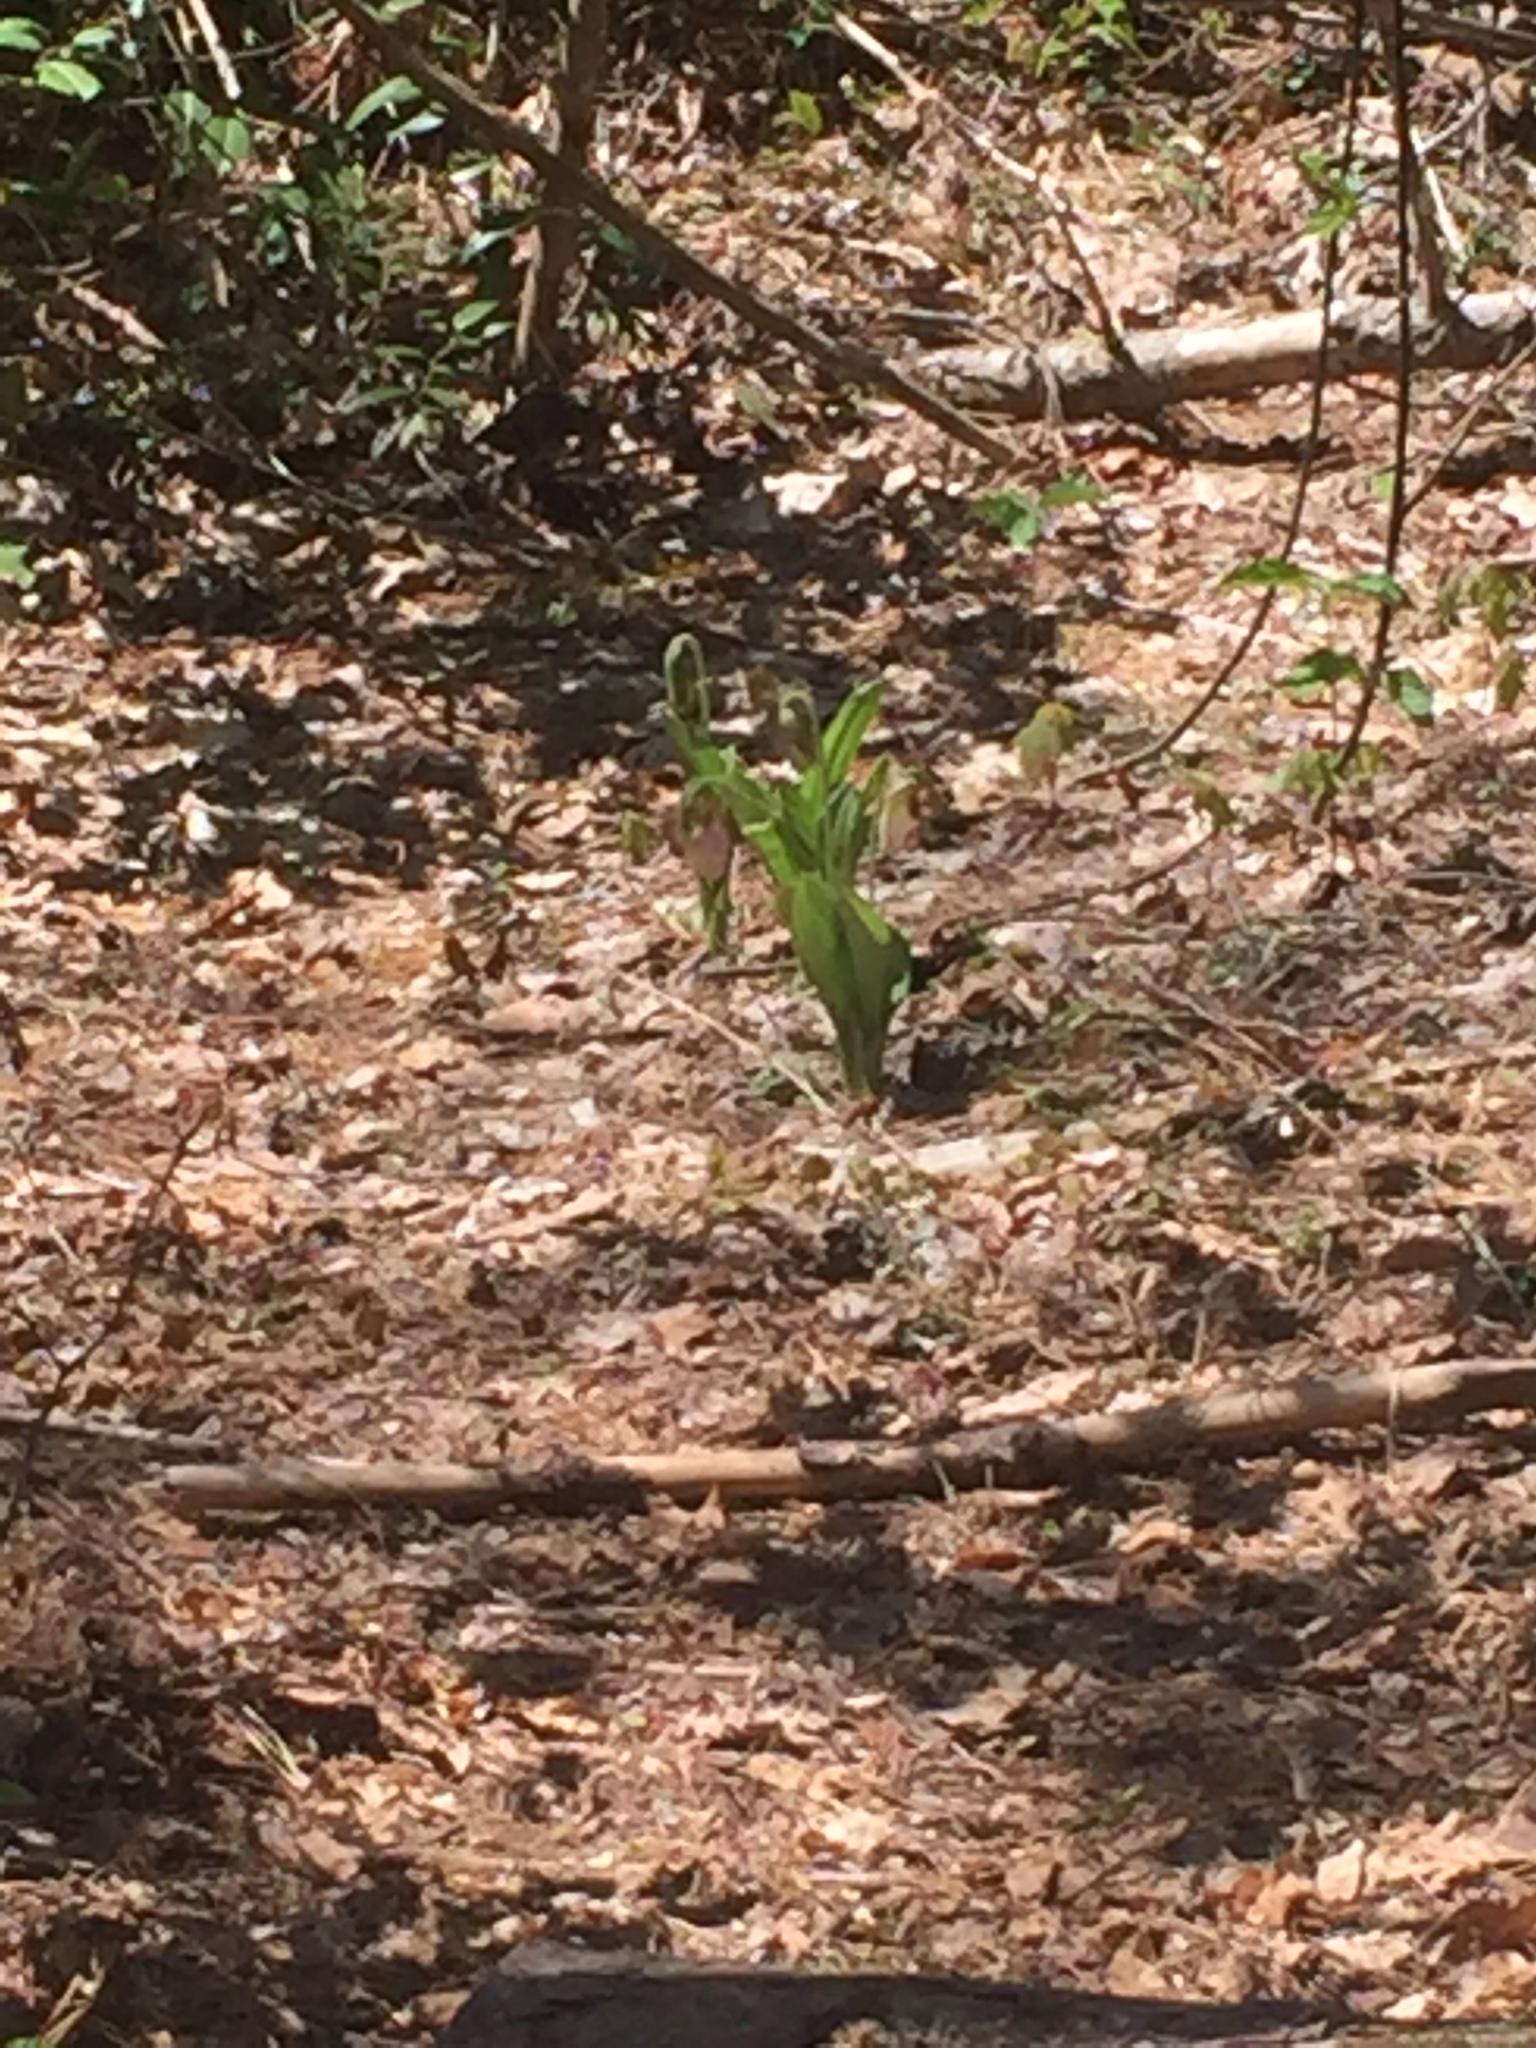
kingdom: Plantae
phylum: Tracheophyta
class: Liliopsida
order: Asparagales
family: Orchidaceae
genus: Cypripedium
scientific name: Cypripedium acaule
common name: Pink lady's-slipper
